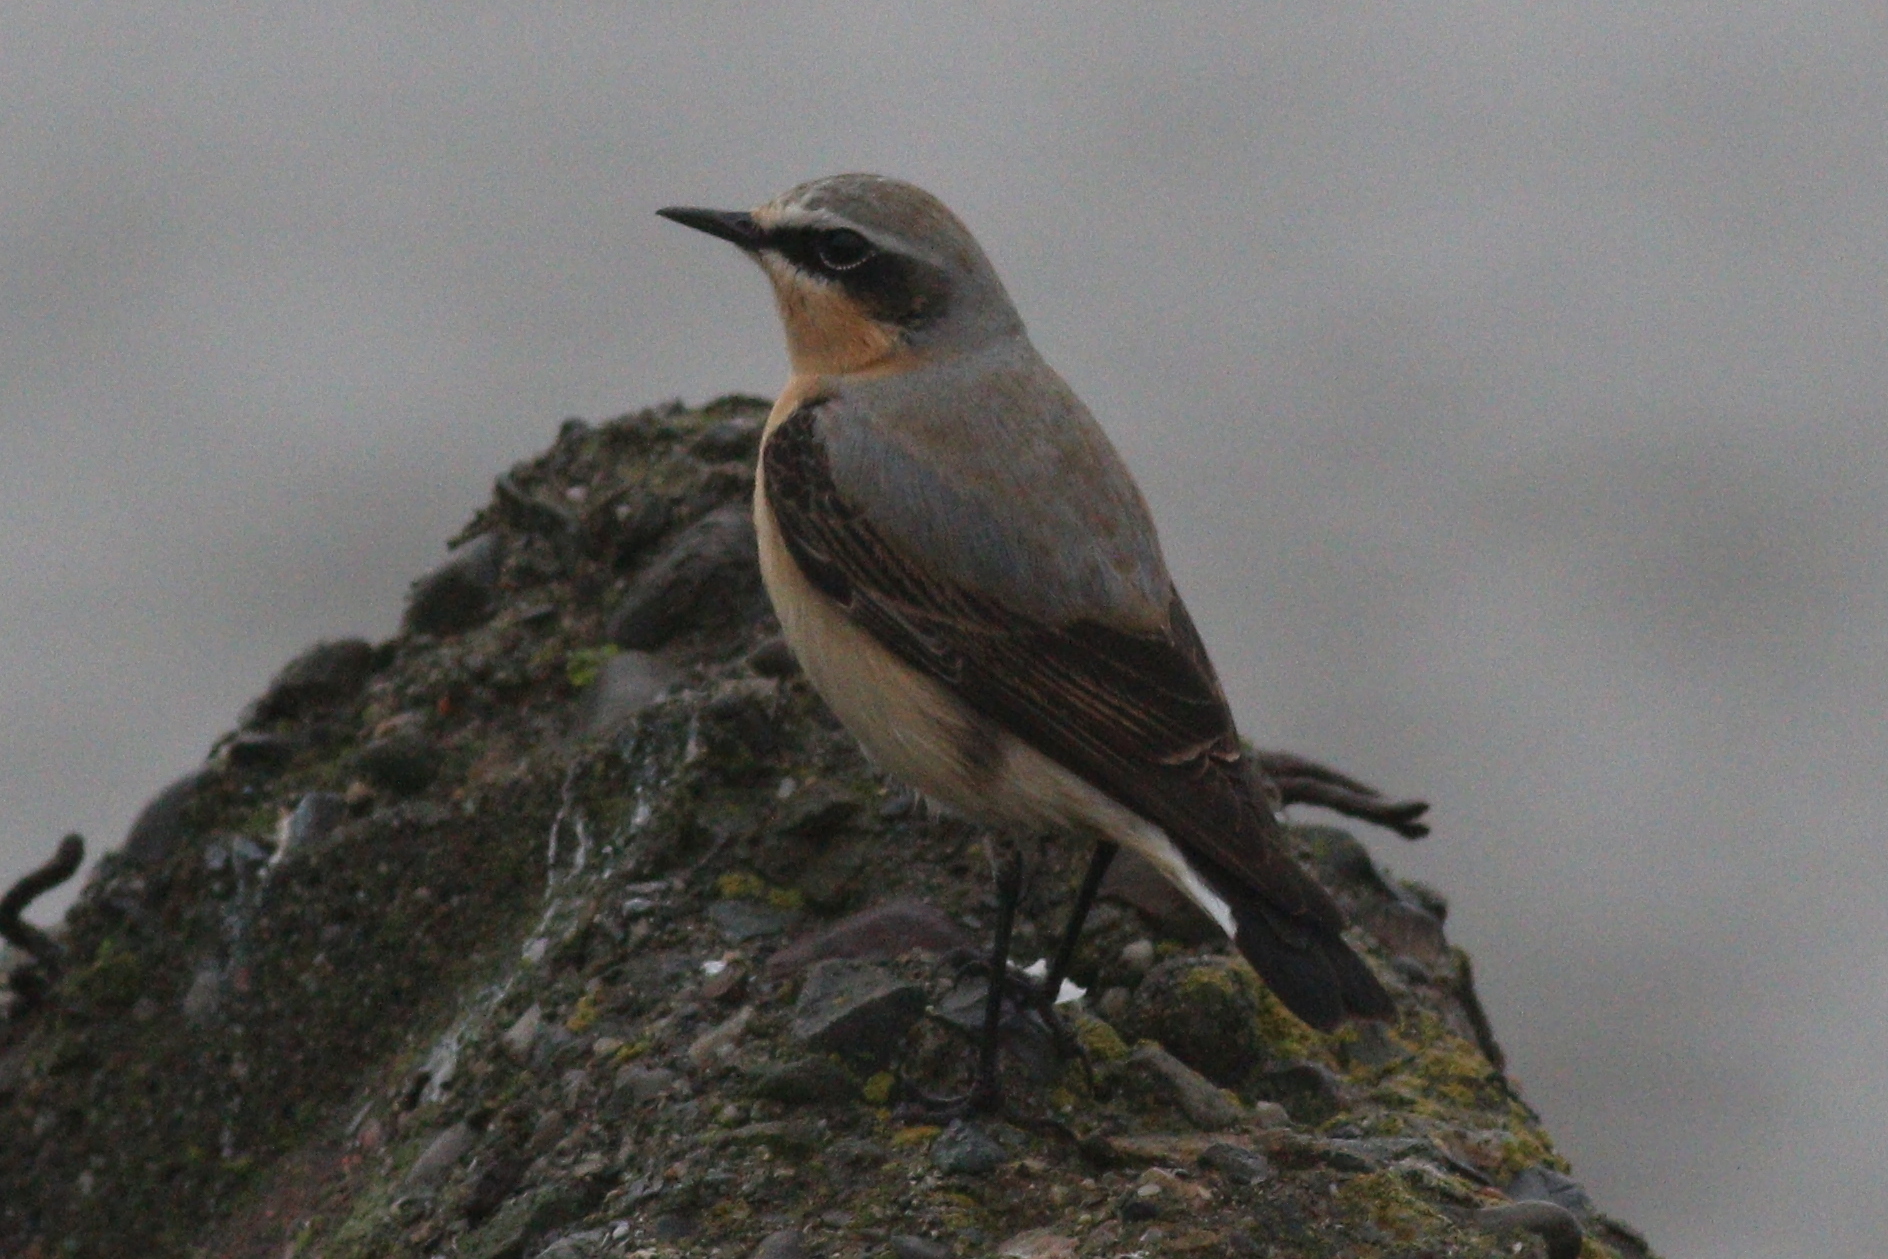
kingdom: Animalia
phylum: Chordata
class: Aves
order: Passeriformes
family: Muscicapidae
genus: Oenanthe
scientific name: Oenanthe oenanthe
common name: Northern wheatear
